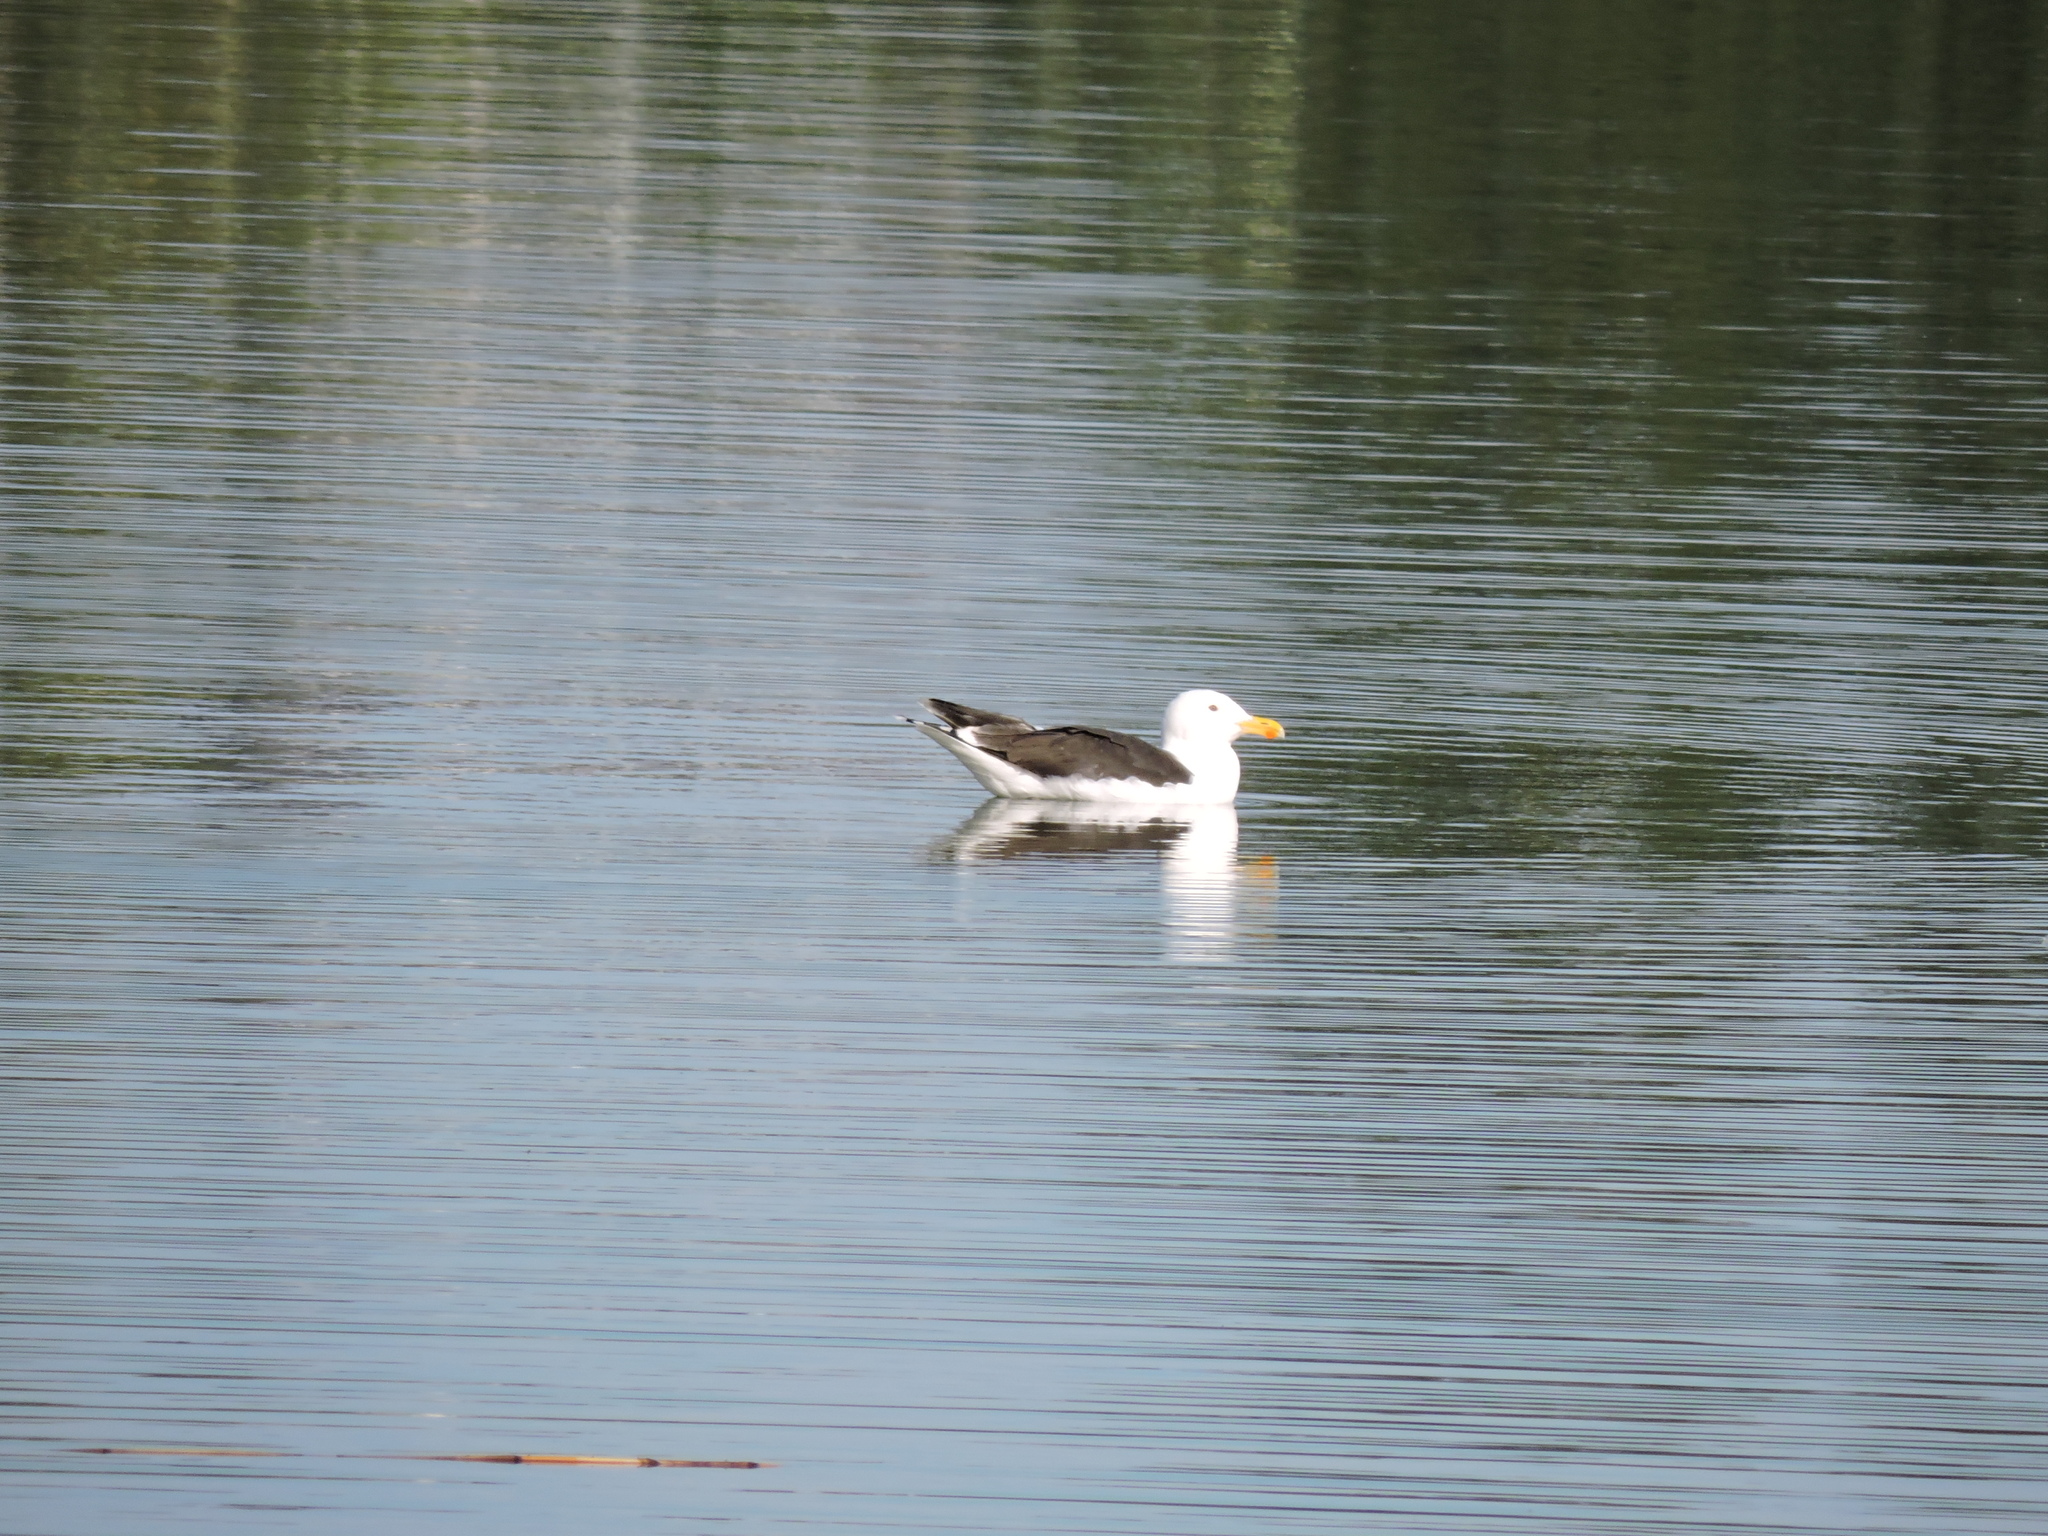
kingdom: Animalia
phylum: Chordata
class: Aves
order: Charadriiformes
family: Laridae
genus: Larus
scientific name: Larus marinus
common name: Great black-backed gull
